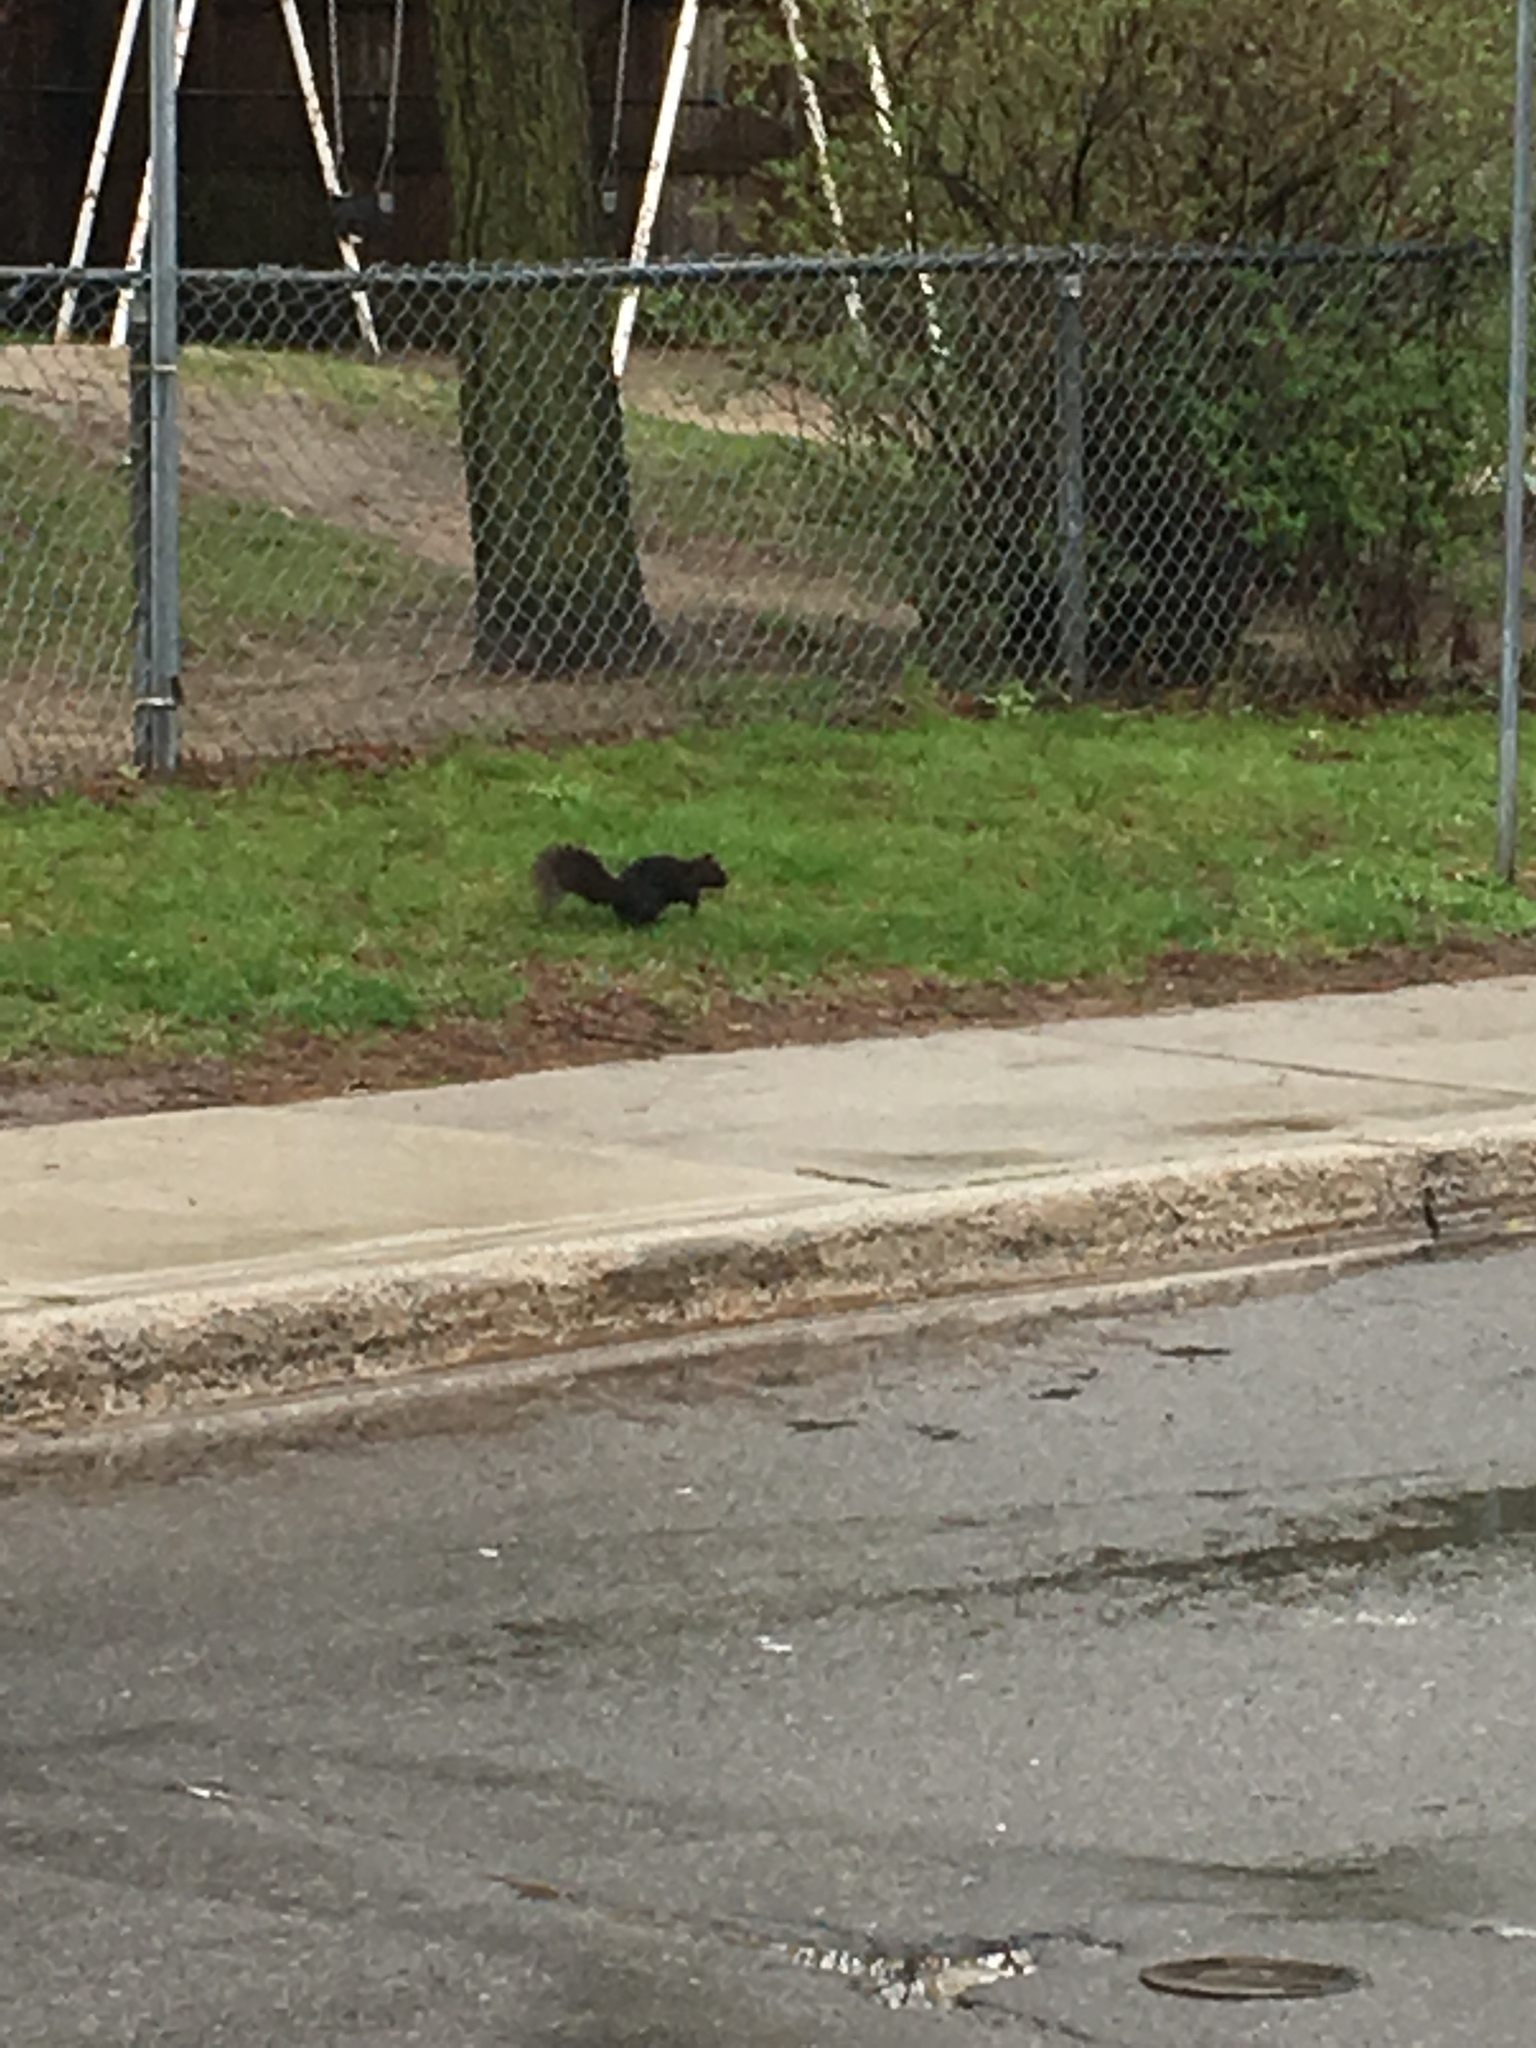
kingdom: Animalia
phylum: Chordata
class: Mammalia
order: Rodentia
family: Sciuridae
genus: Sciurus
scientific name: Sciurus carolinensis
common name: Eastern gray squirrel
